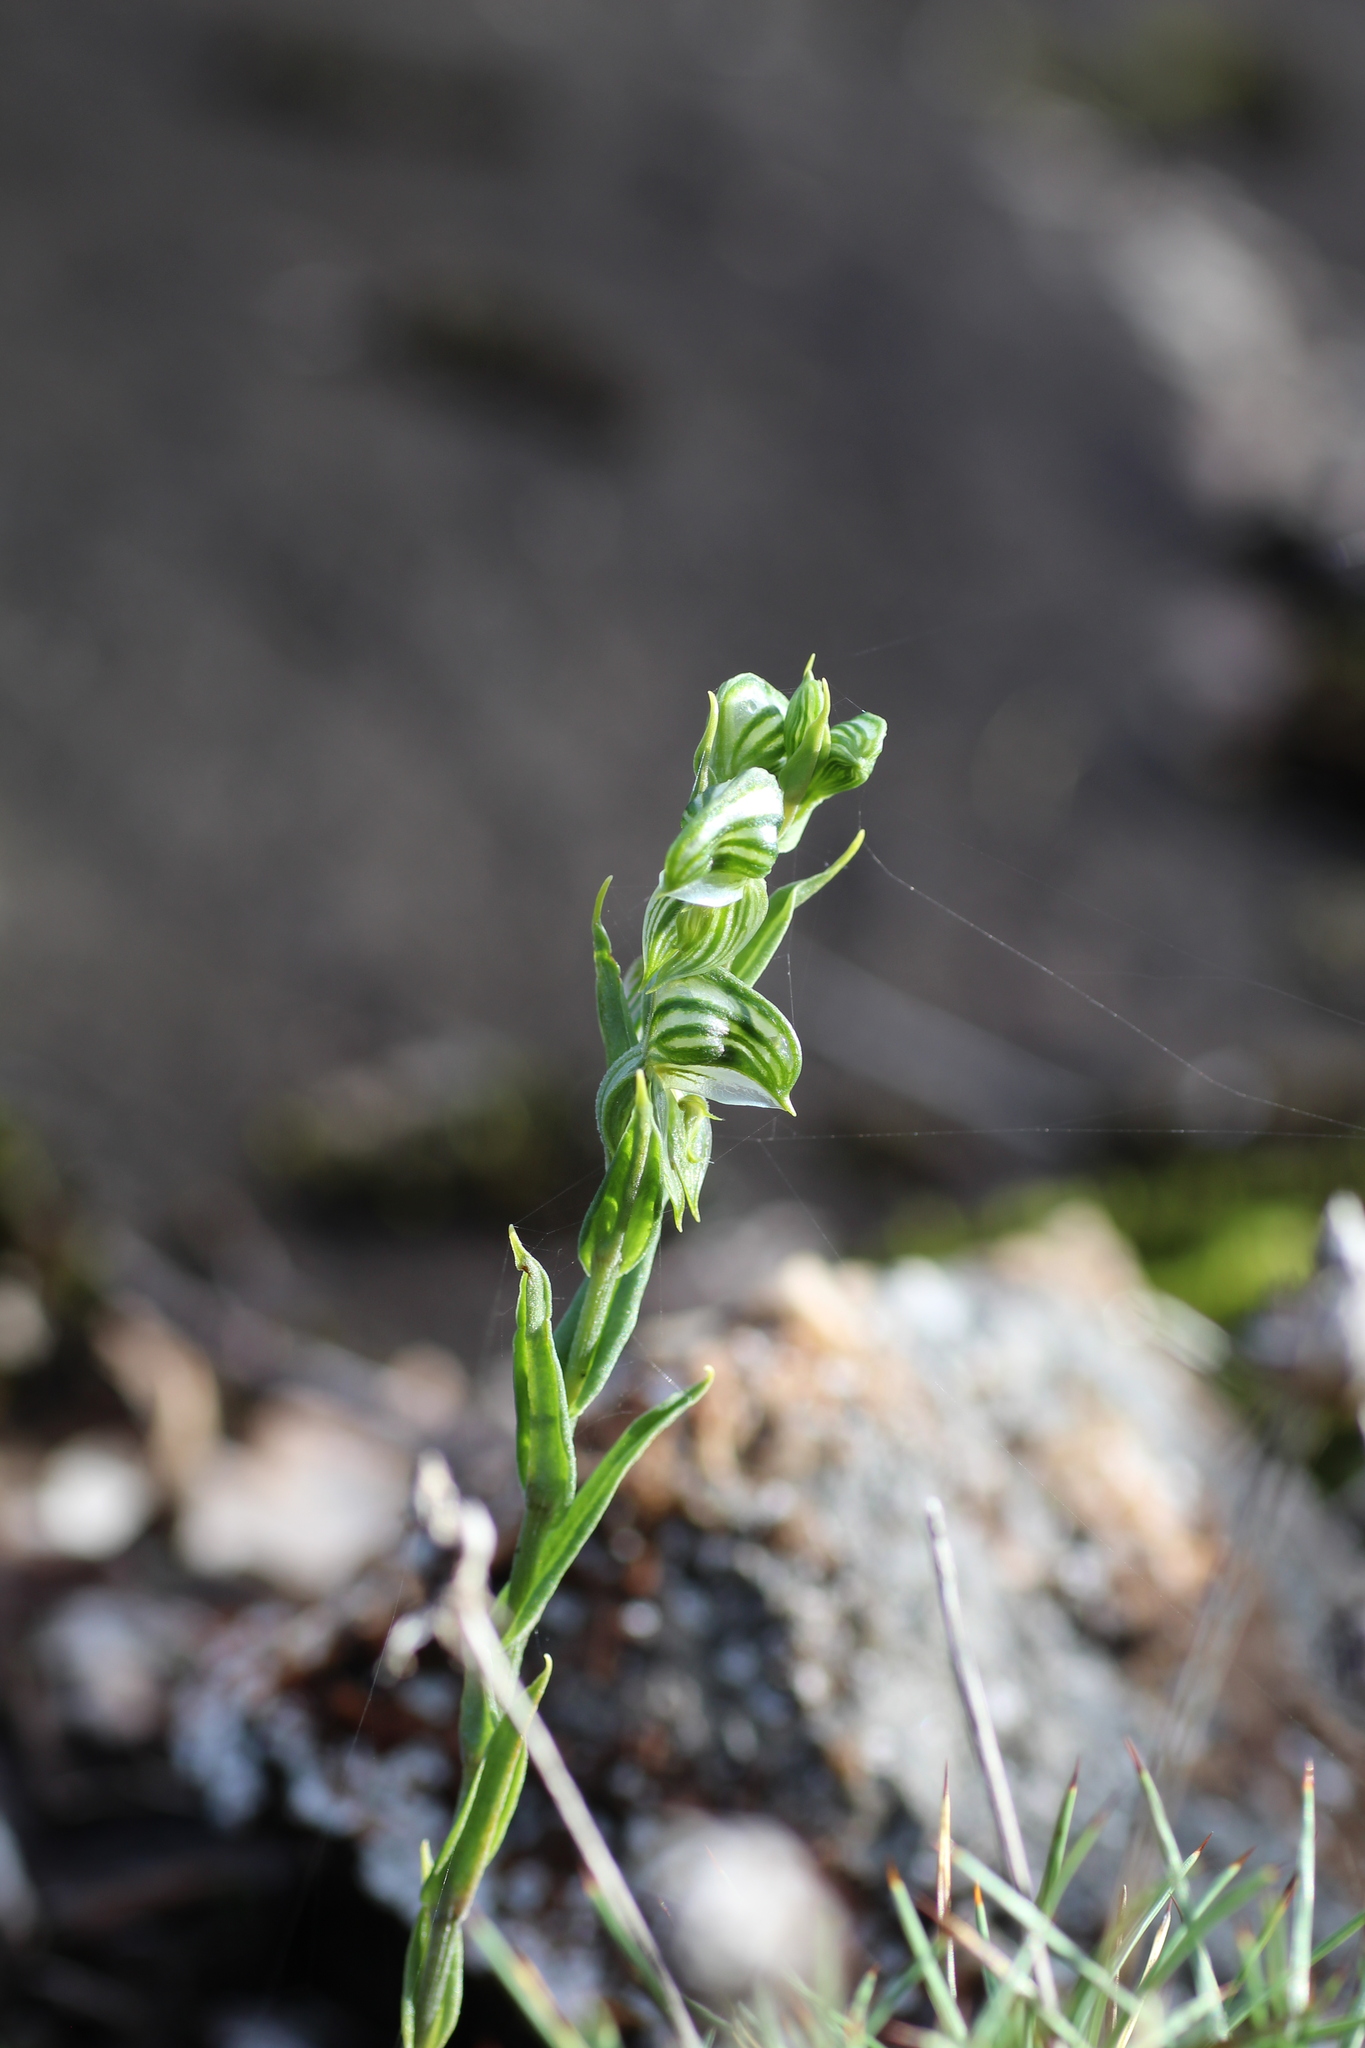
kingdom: Plantae
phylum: Tracheophyta
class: Liliopsida
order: Asparagales
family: Orchidaceae
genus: Pterostylis
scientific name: Pterostylis vittata
